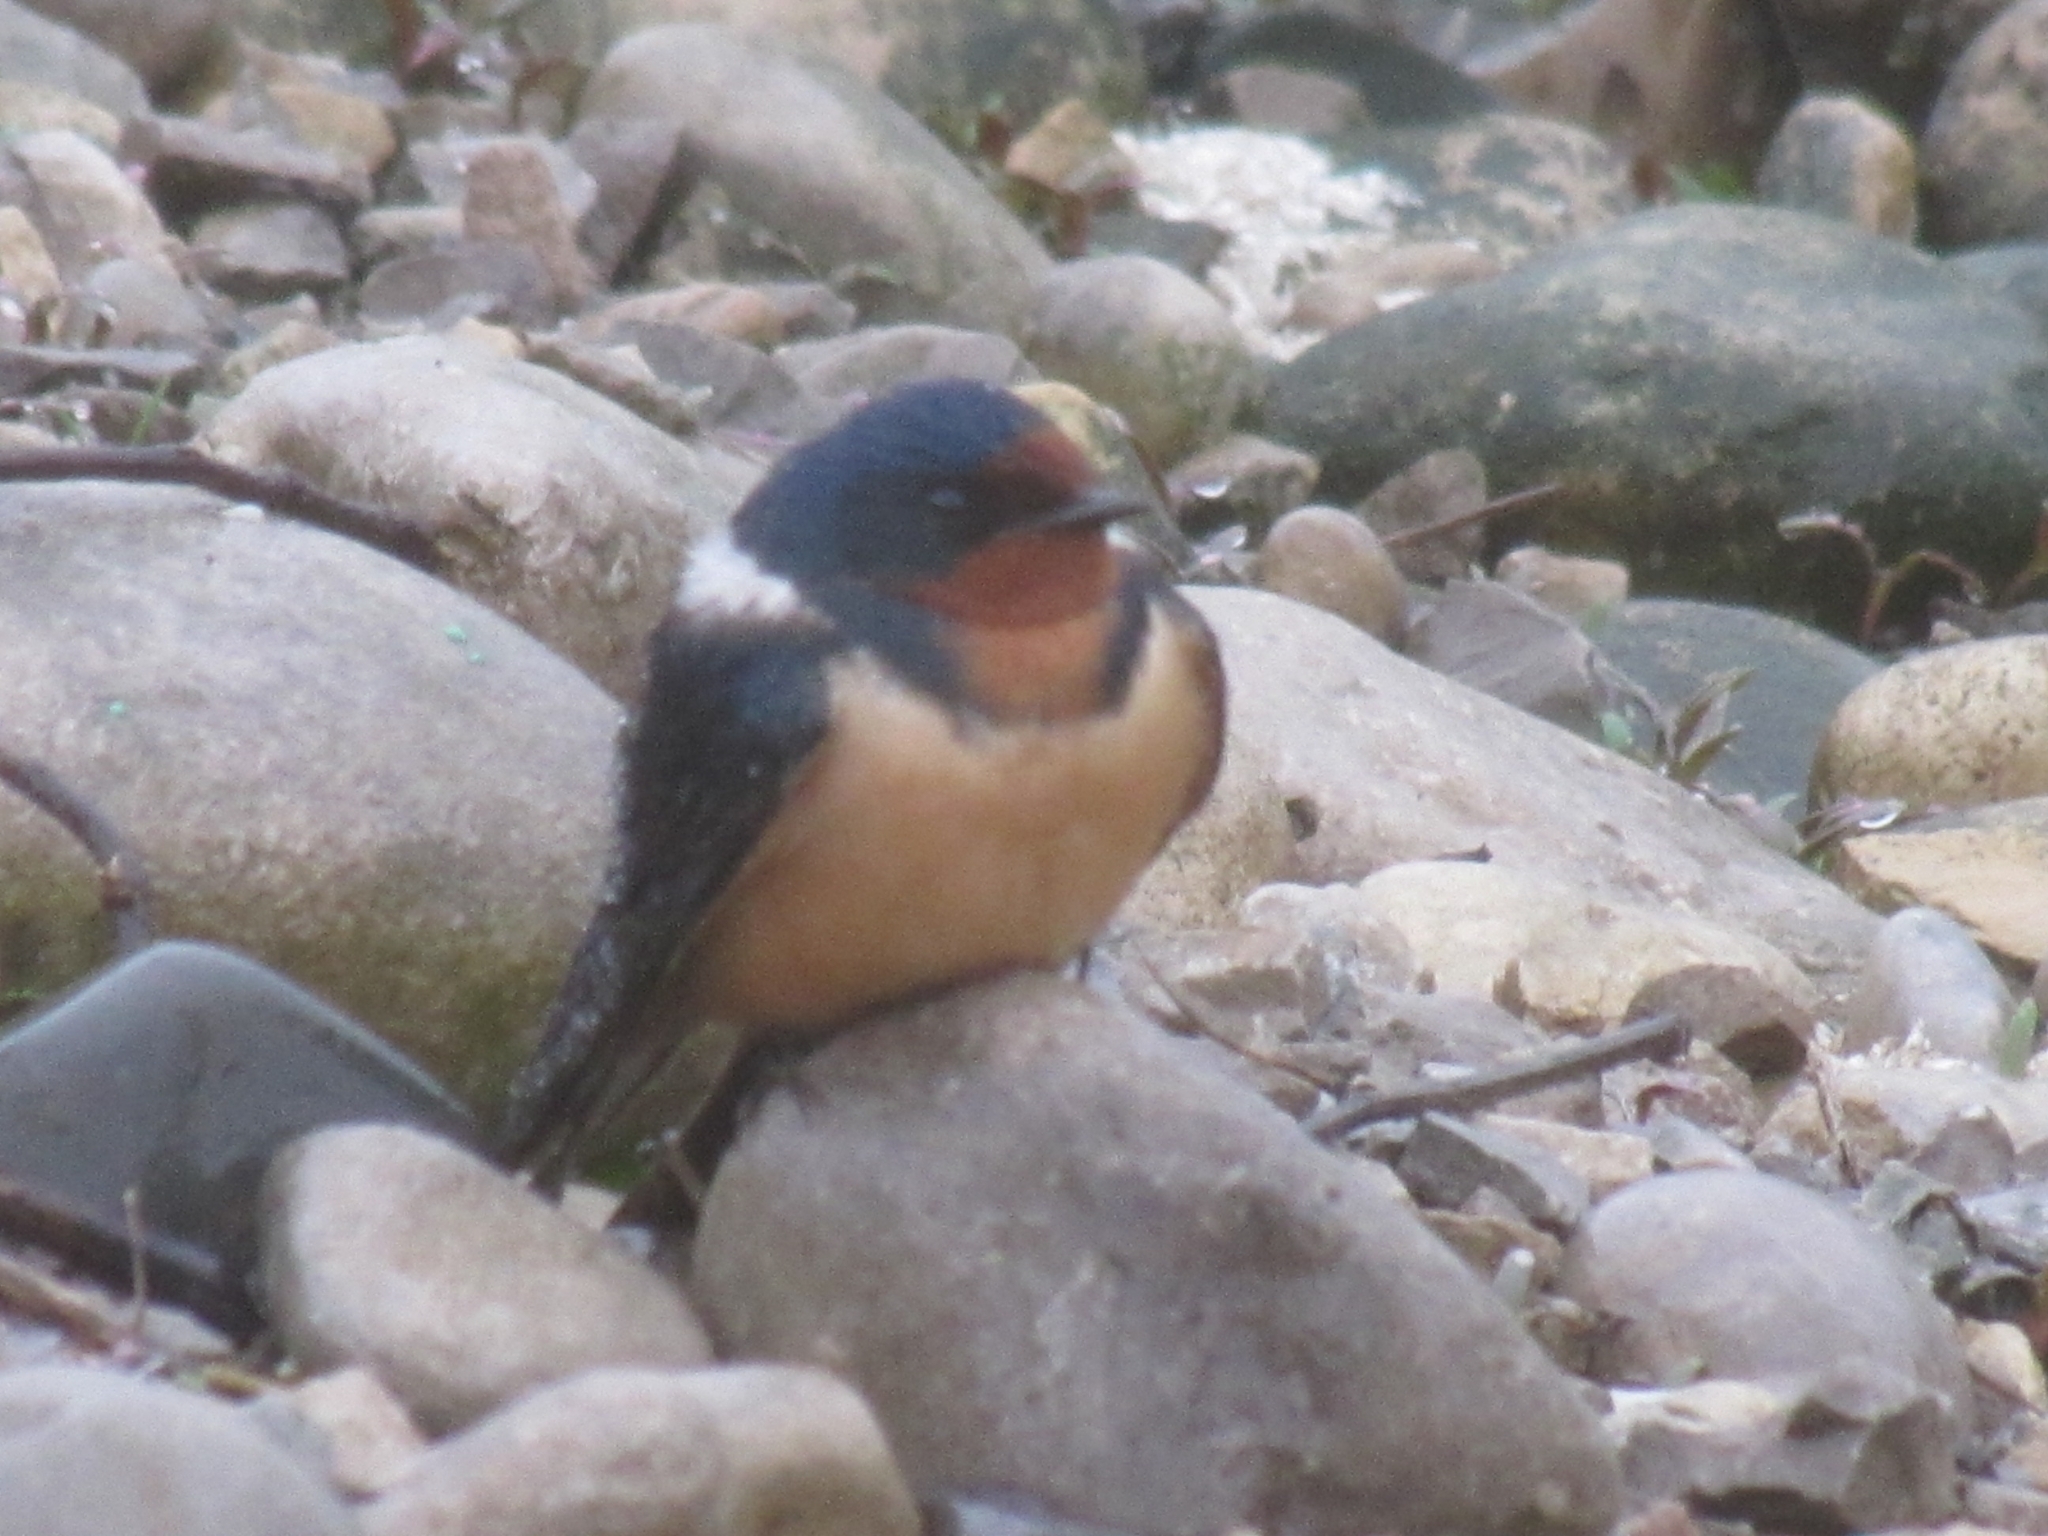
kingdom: Animalia
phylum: Chordata
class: Aves
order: Passeriformes
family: Hirundinidae
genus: Hirundo
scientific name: Hirundo rustica
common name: Barn swallow
